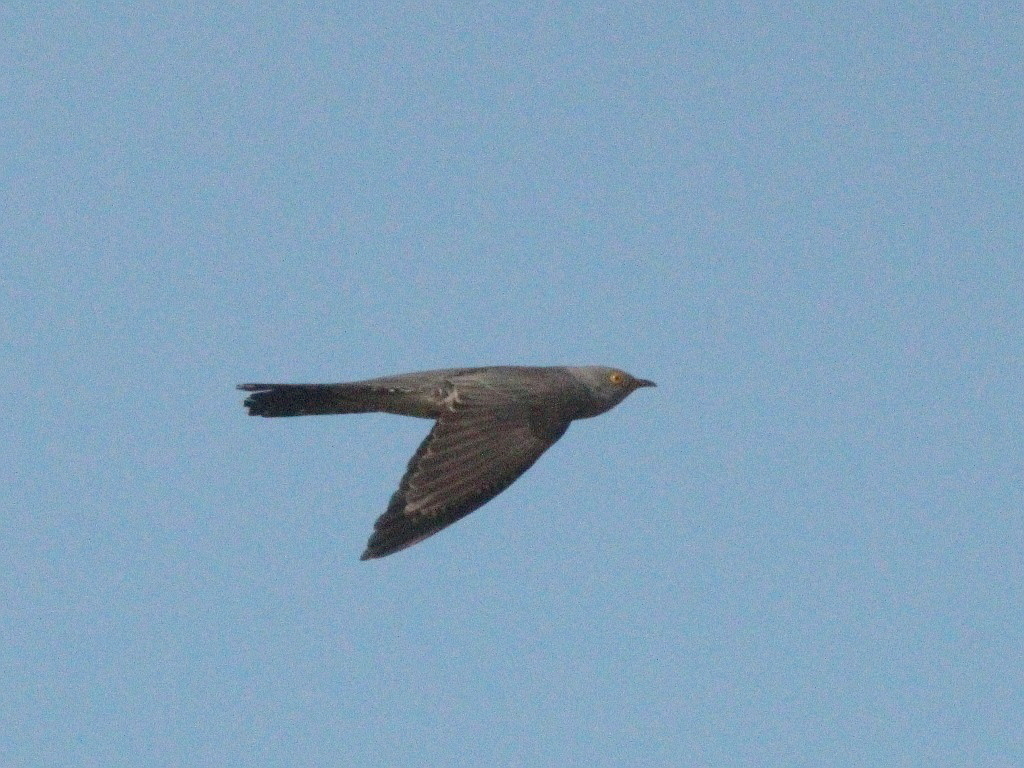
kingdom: Animalia
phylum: Chordata
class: Aves
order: Cuculiformes
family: Cuculidae
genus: Cuculus
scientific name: Cuculus canorus
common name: Common cuckoo
